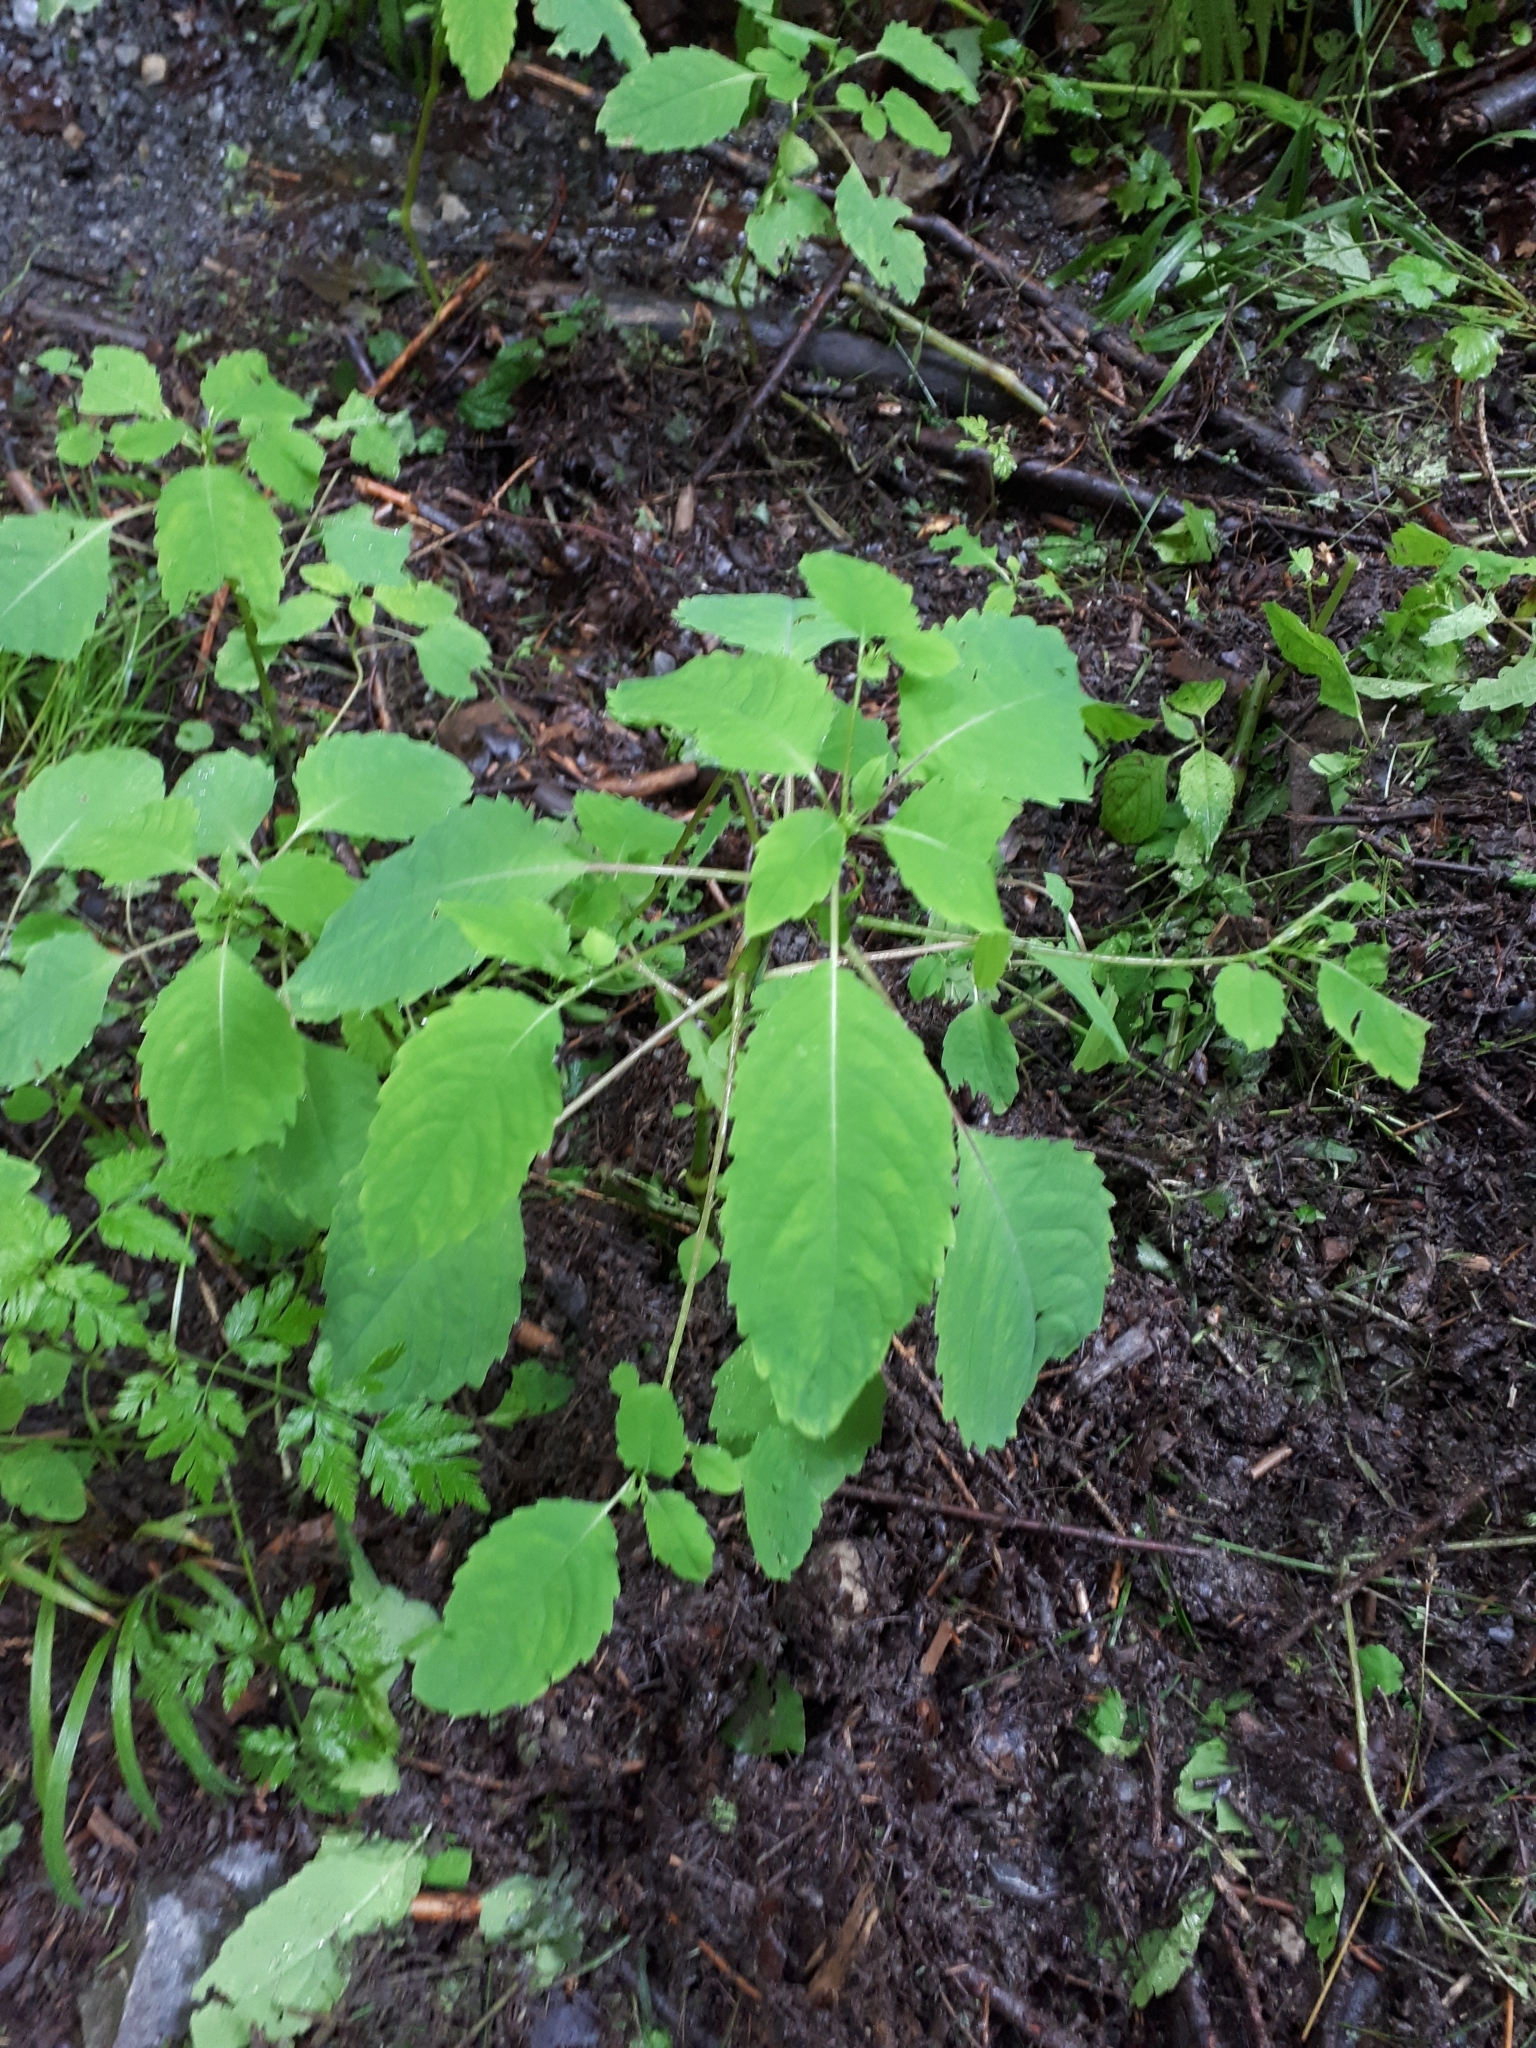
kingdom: Plantae
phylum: Tracheophyta
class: Magnoliopsida
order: Ericales
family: Balsaminaceae
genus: Impatiens
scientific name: Impatiens noli-tangere
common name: Touch-me-not balsam
